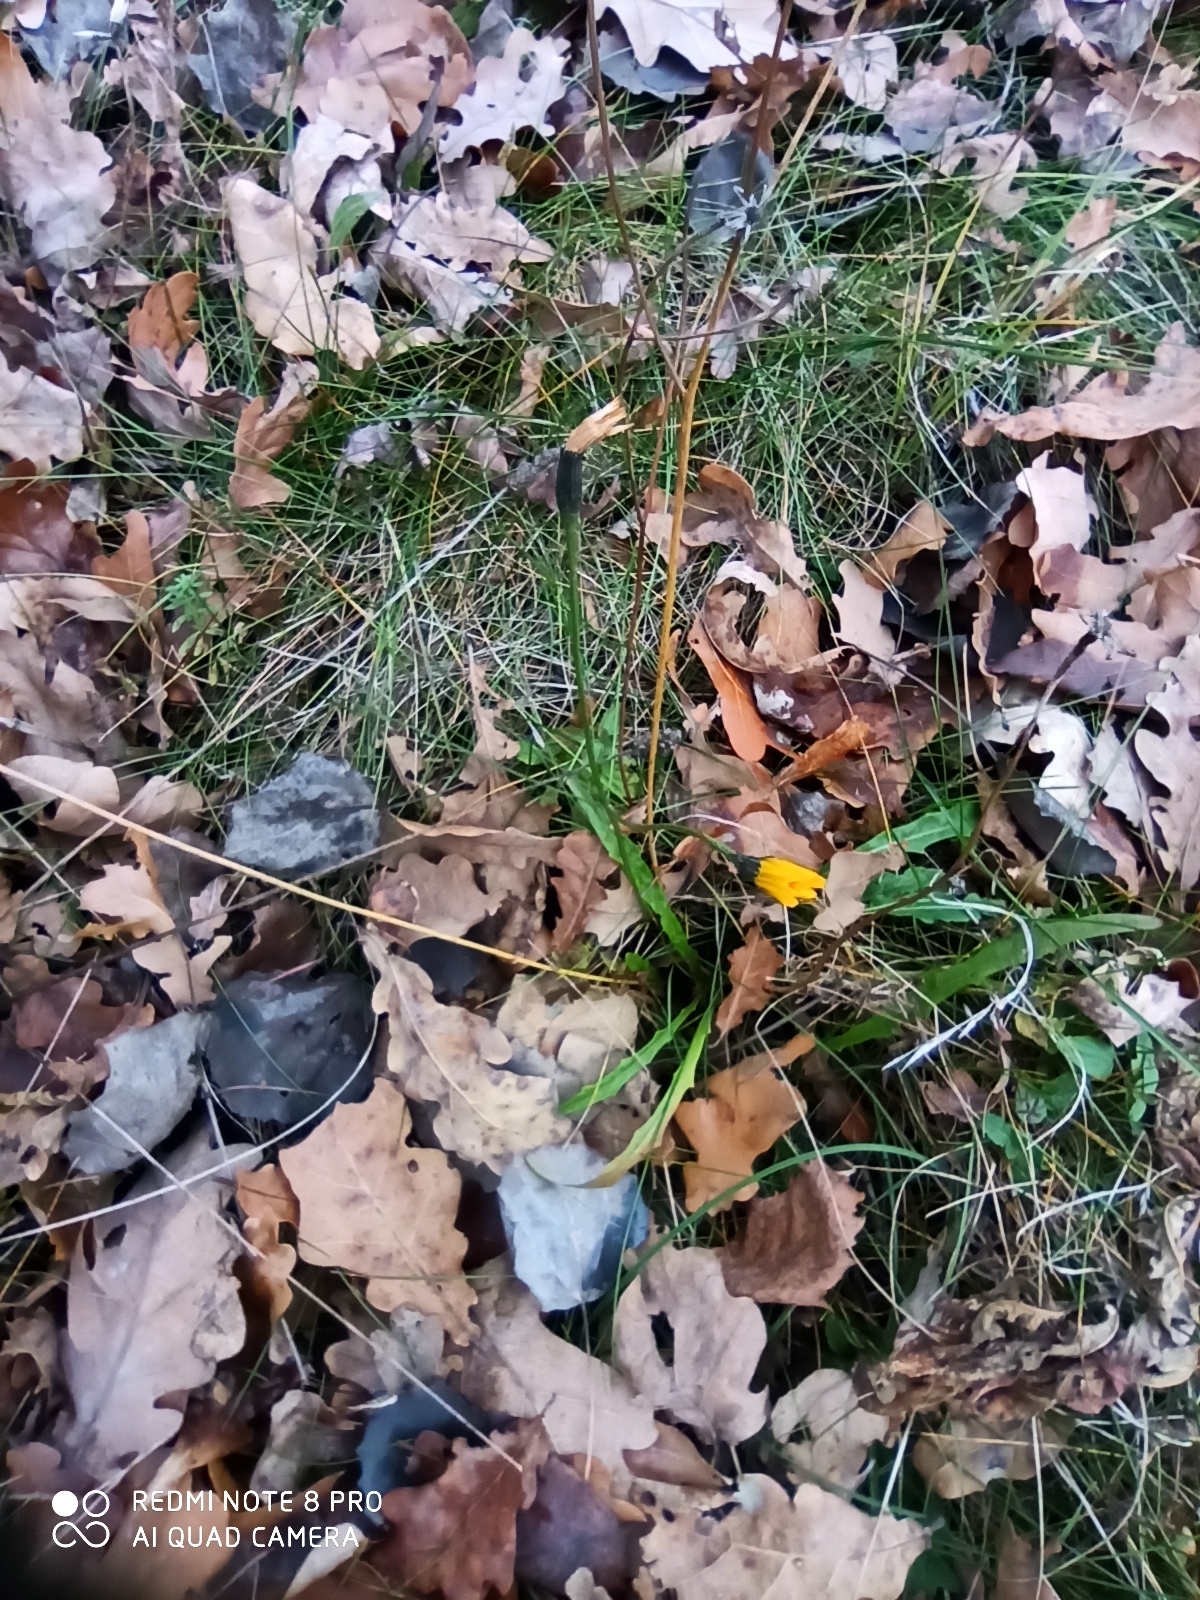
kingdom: Plantae
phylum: Tracheophyta
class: Magnoliopsida
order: Asterales
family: Asteraceae
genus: Scorzoneroides
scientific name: Scorzoneroides autumnalis
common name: Autumn hawkbit
